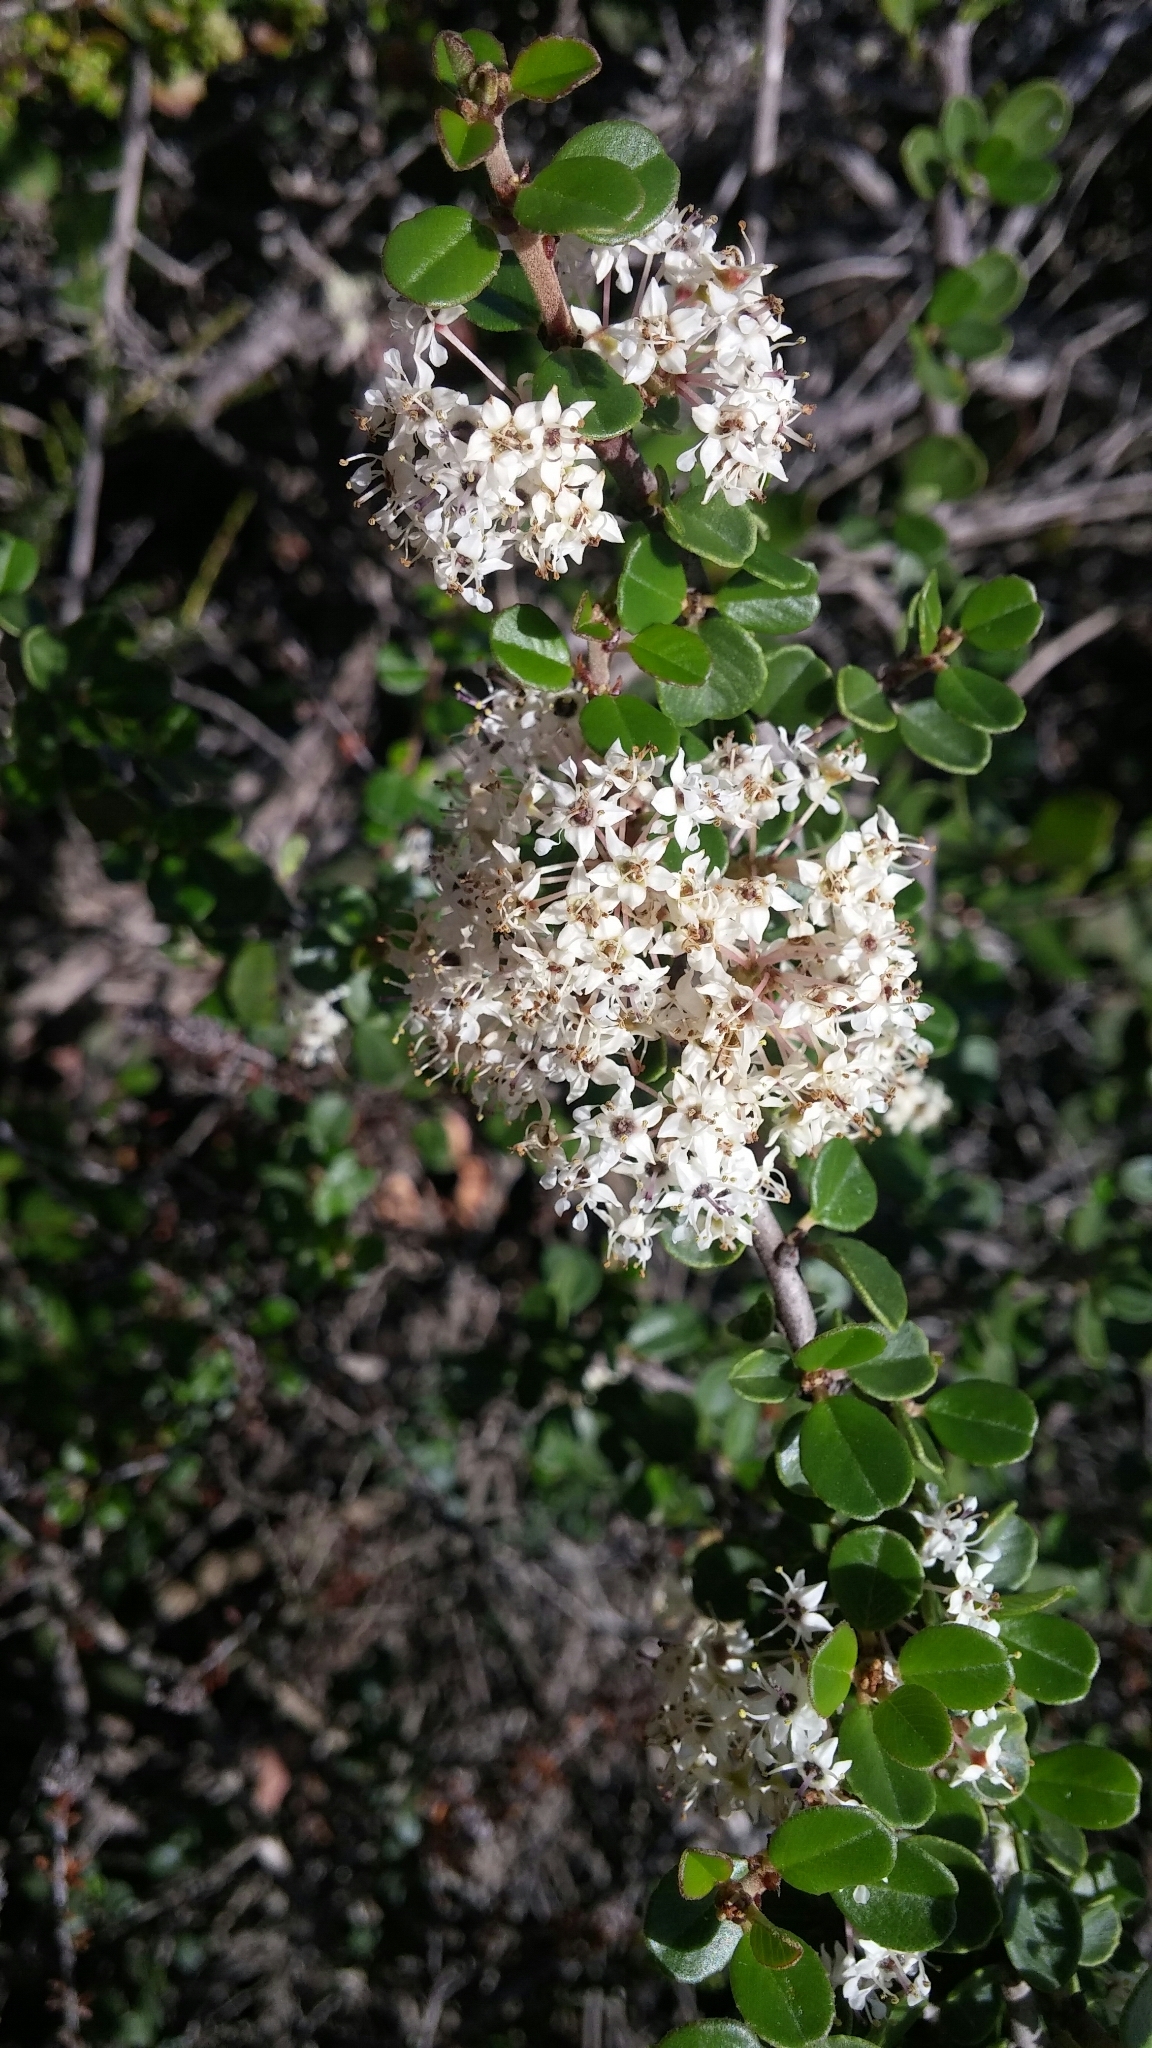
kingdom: Plantae
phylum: Tracheophyta
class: Magnoliopsida
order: Rosales
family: Rhamnaceae
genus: Ceanothus
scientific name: Ceanothus verrucosus
